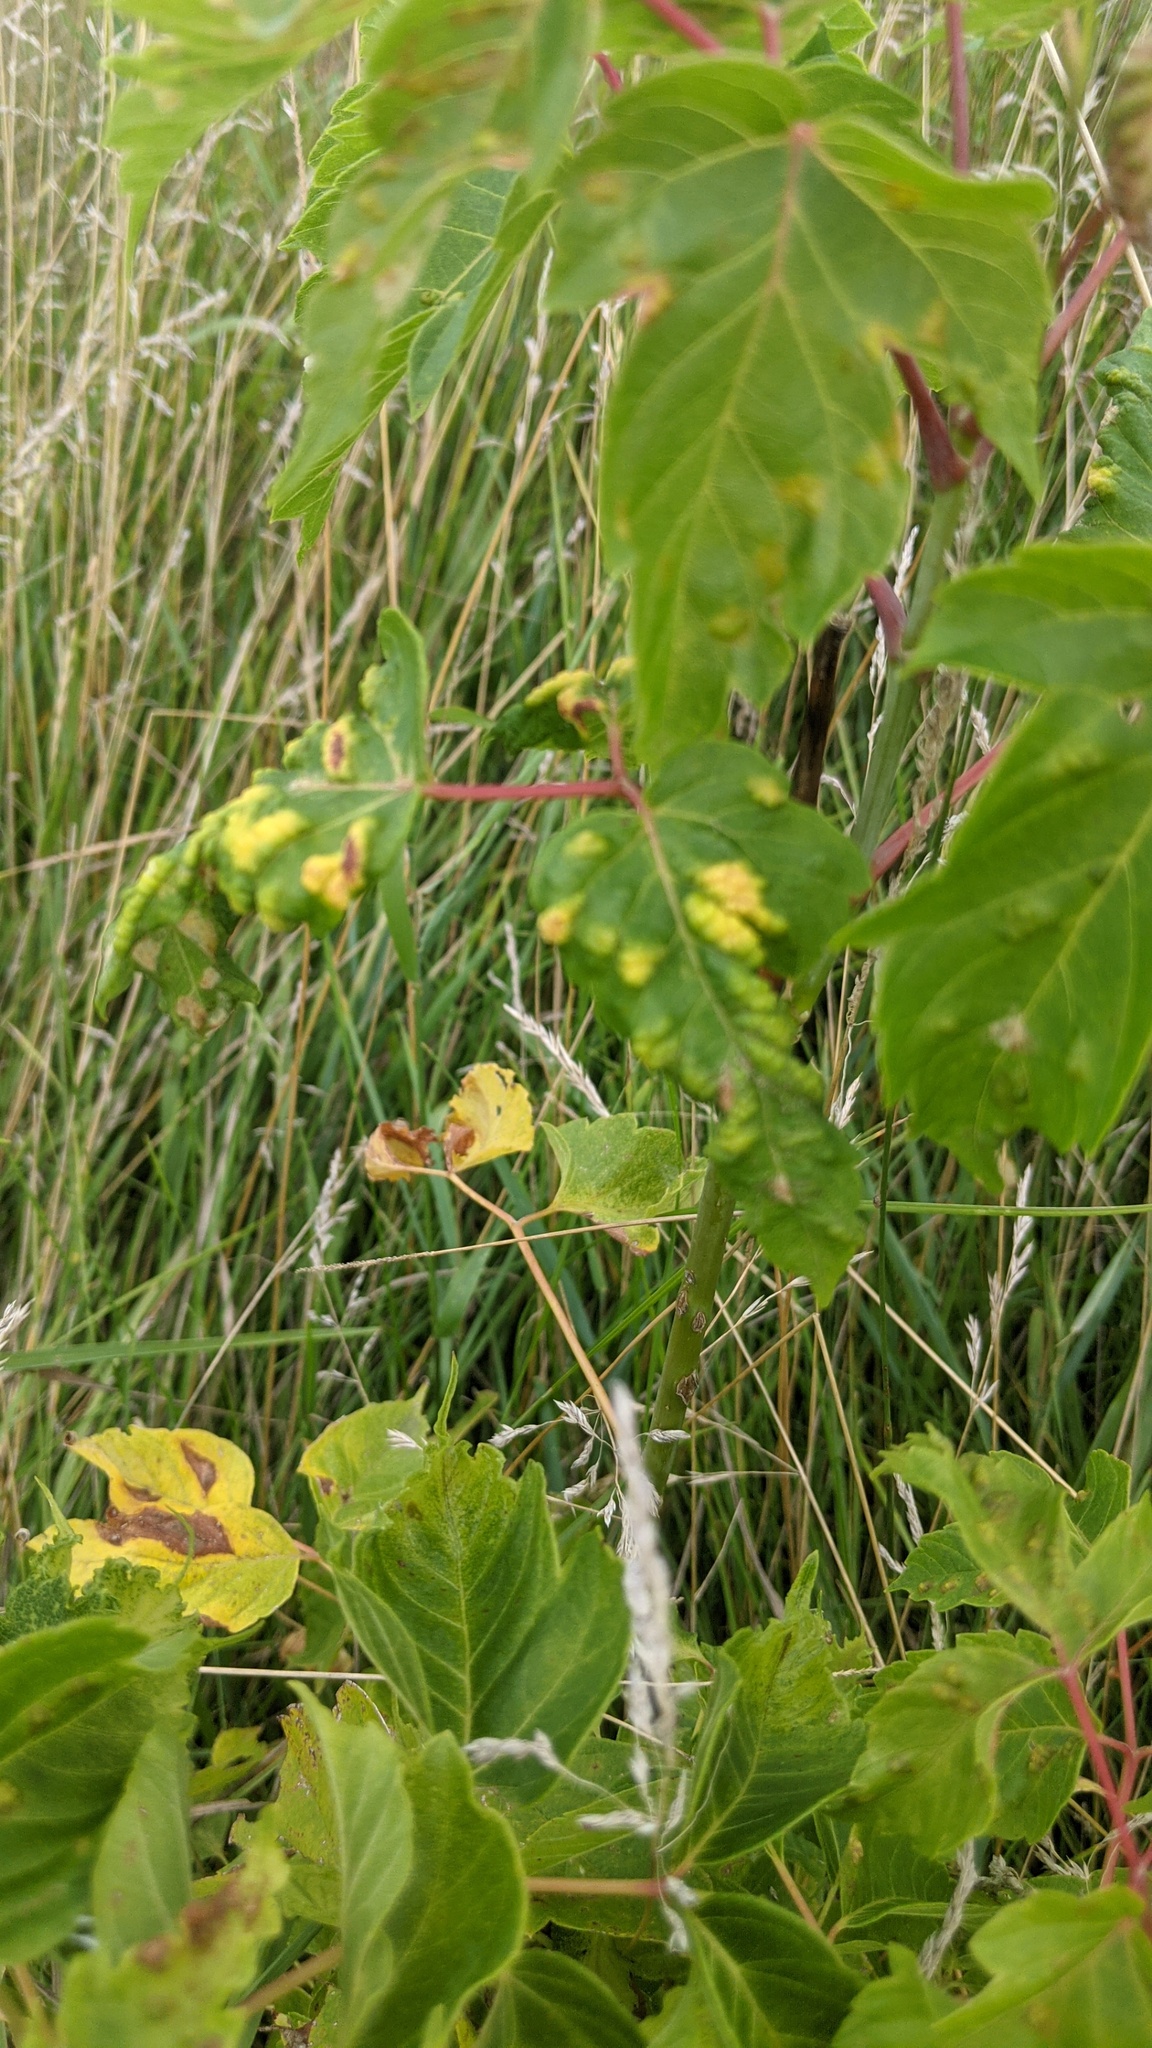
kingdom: Animalia
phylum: Arthropoda
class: Arachnida
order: Trombidiformes
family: Eriophyidae
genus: Aceria
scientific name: Aceria
